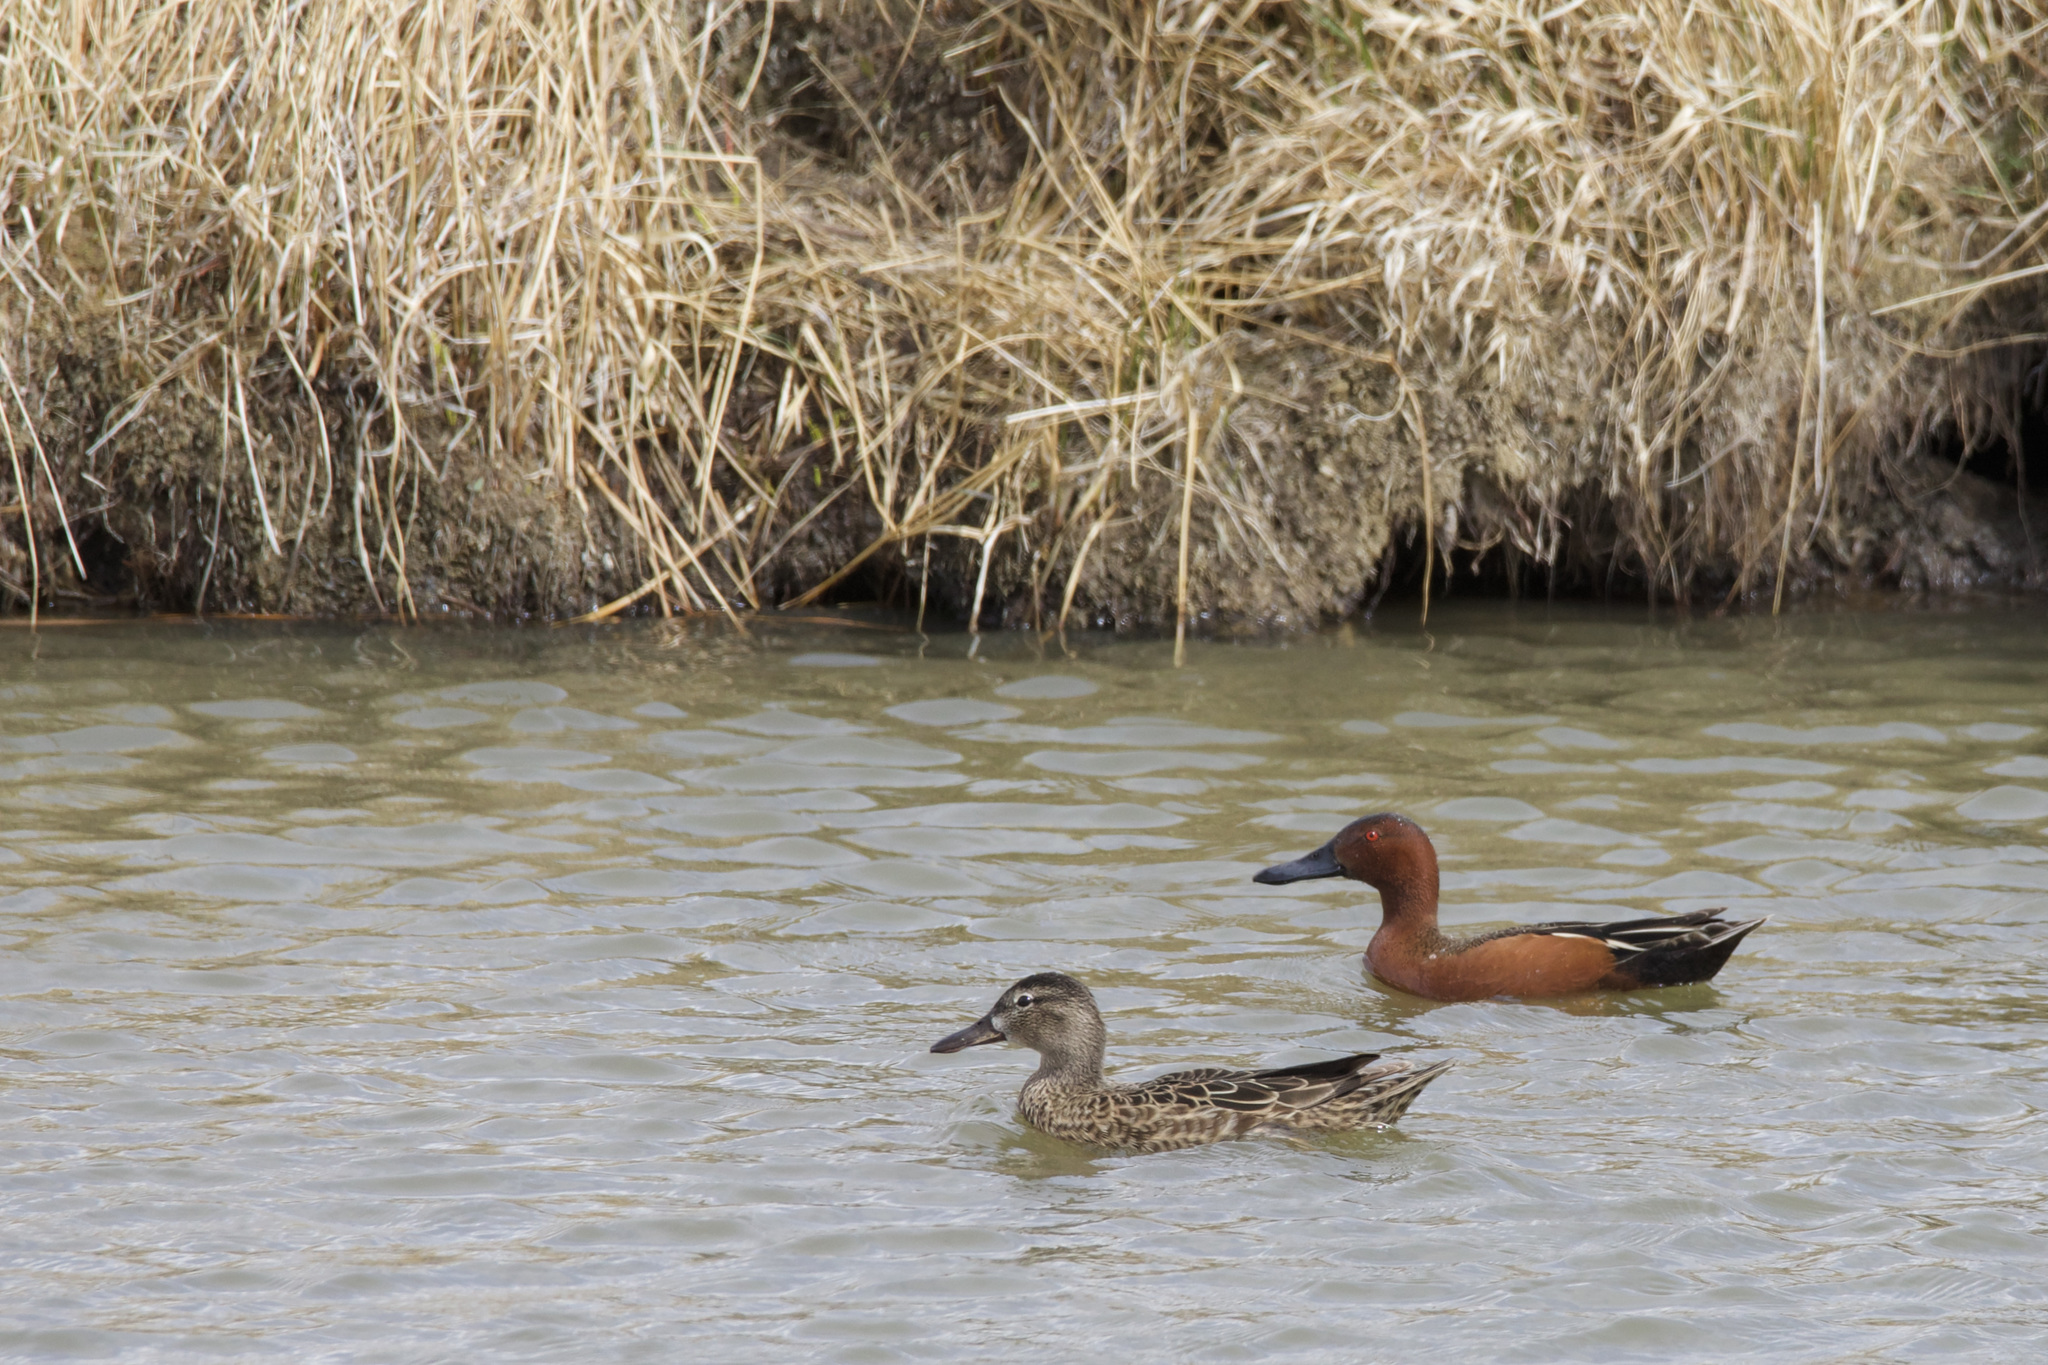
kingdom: Animalia
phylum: Chordata
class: Aves
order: Anseriformes
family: Anatidae
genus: Spatula
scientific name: Spatula cyanoptera
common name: Cinnamon teal
